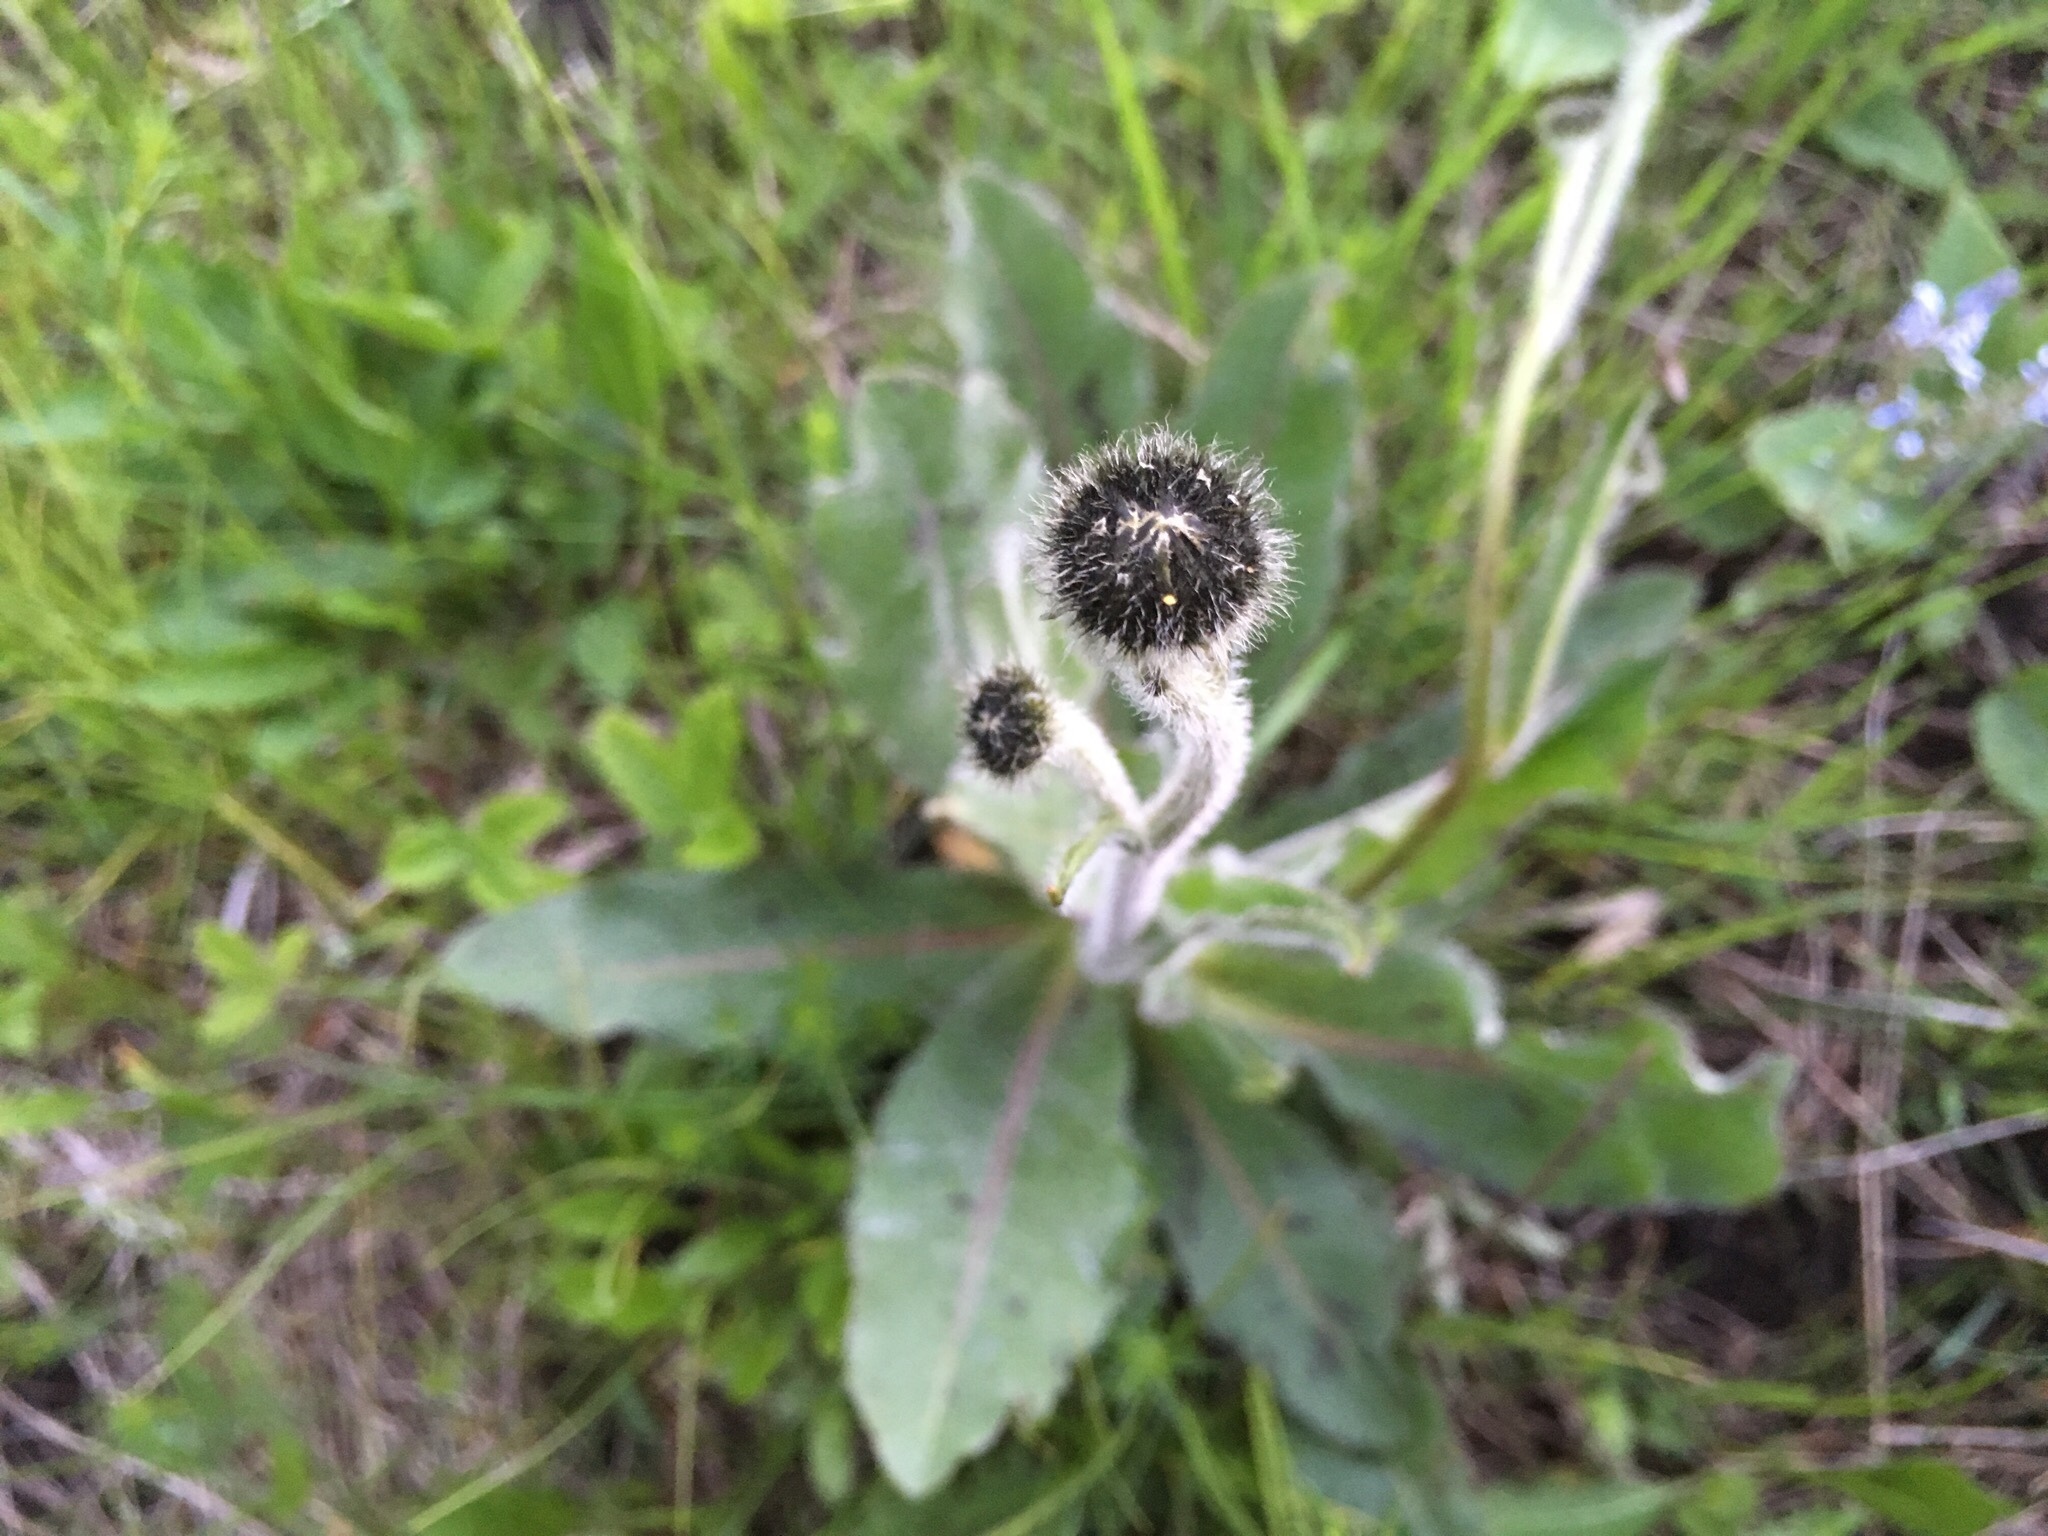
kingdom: Plantae
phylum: Tracheophyta
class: Magnoliopsida
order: Asterales
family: Asteraceae
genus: Trommsdorffia
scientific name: Trommsdorffia maculata
